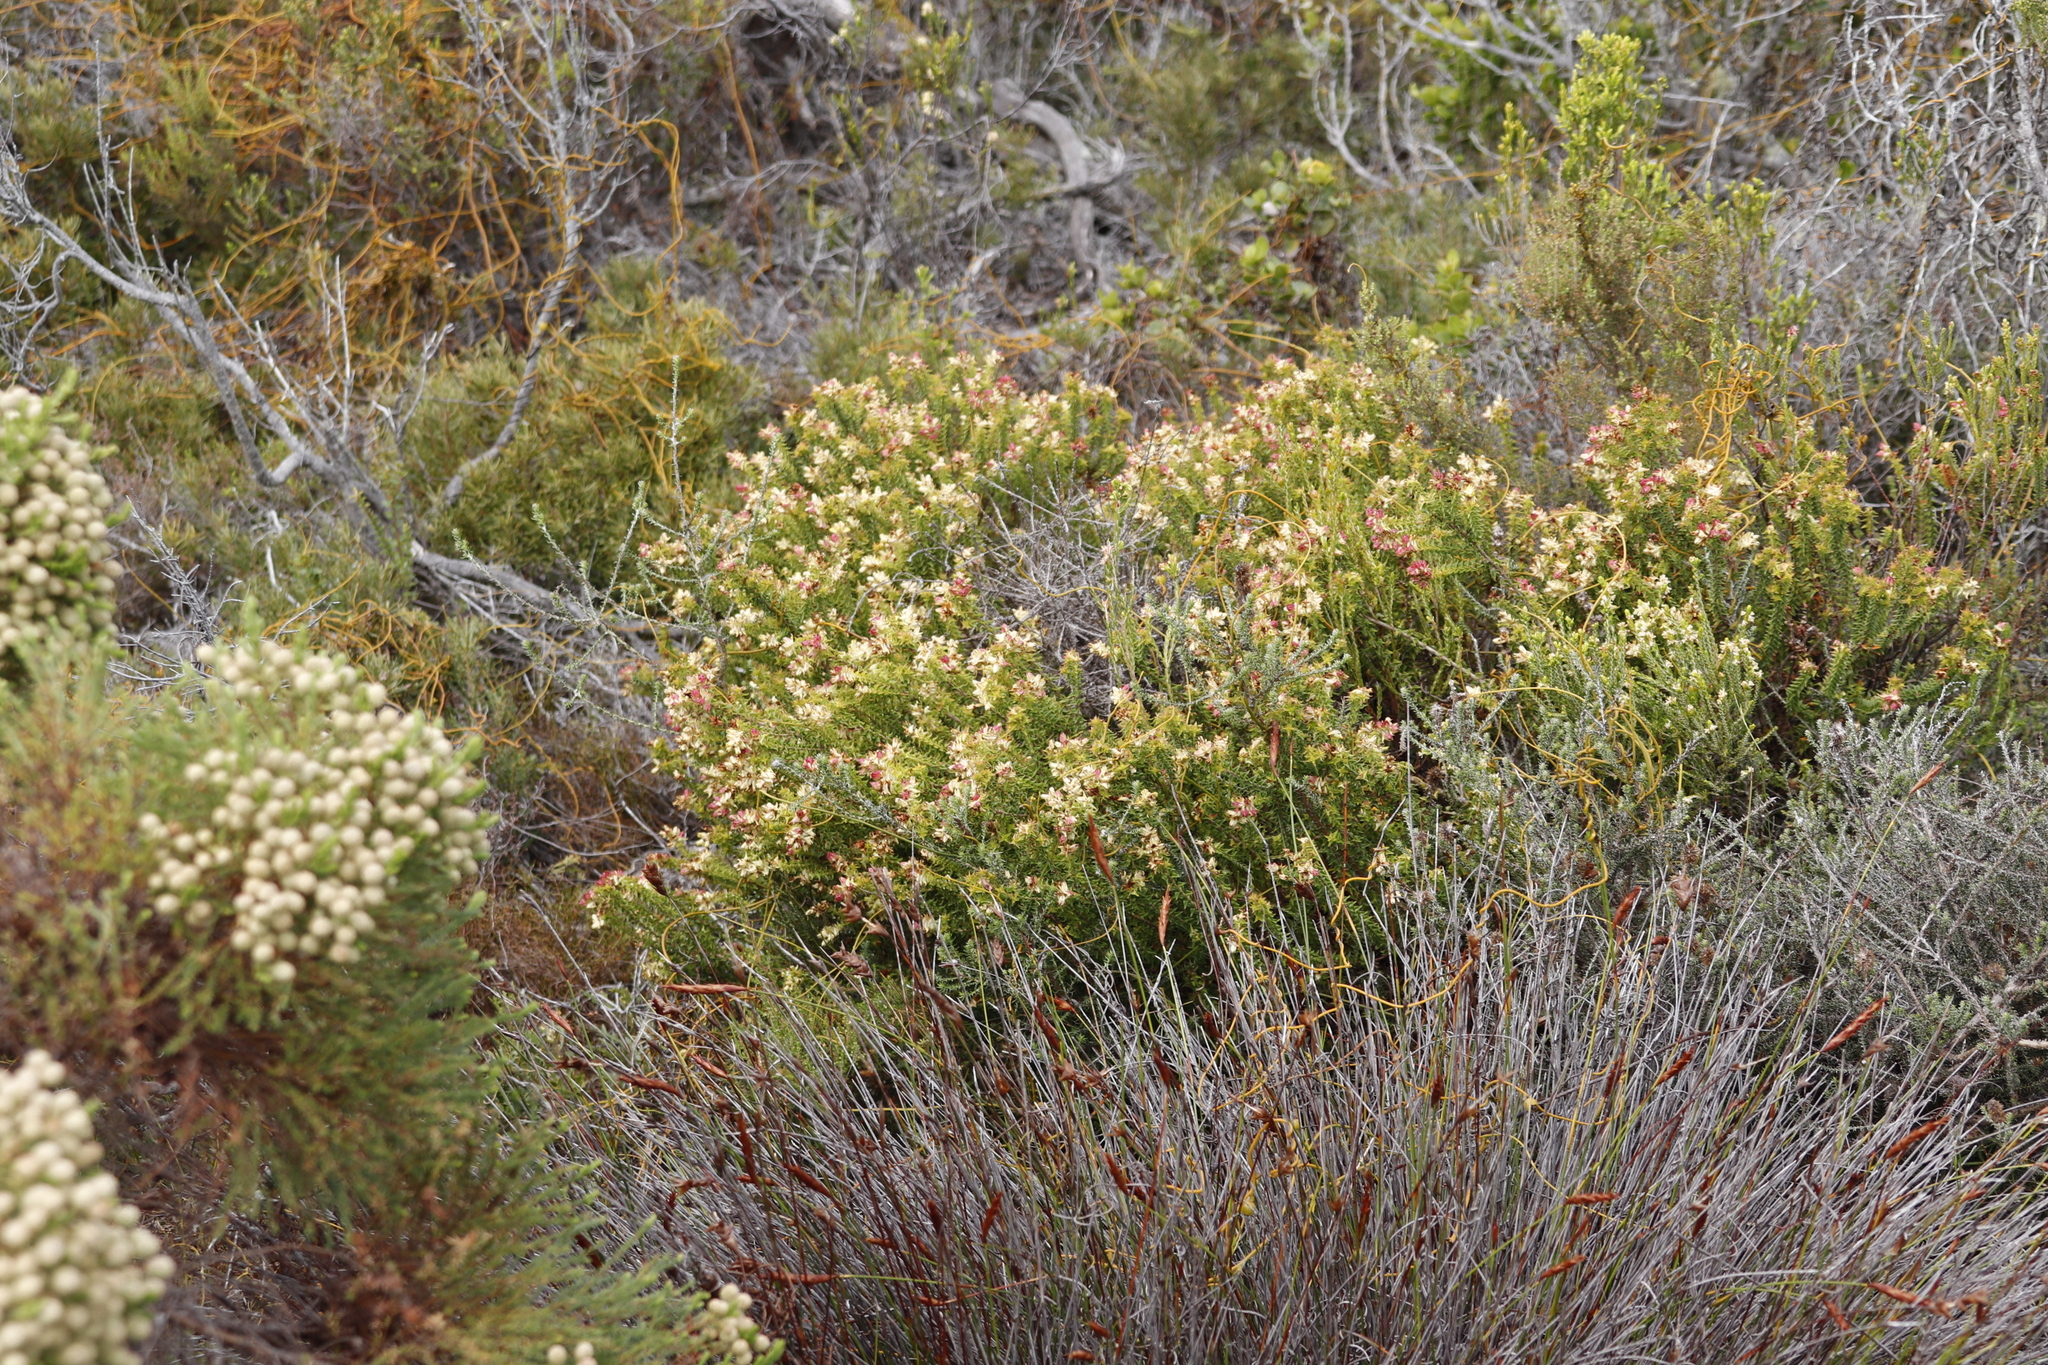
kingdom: Plantae
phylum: Tracheophyta
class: Magnoliopsida
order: Myrtales
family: Penaeaceae
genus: Penaea
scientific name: Penaea mucronata
